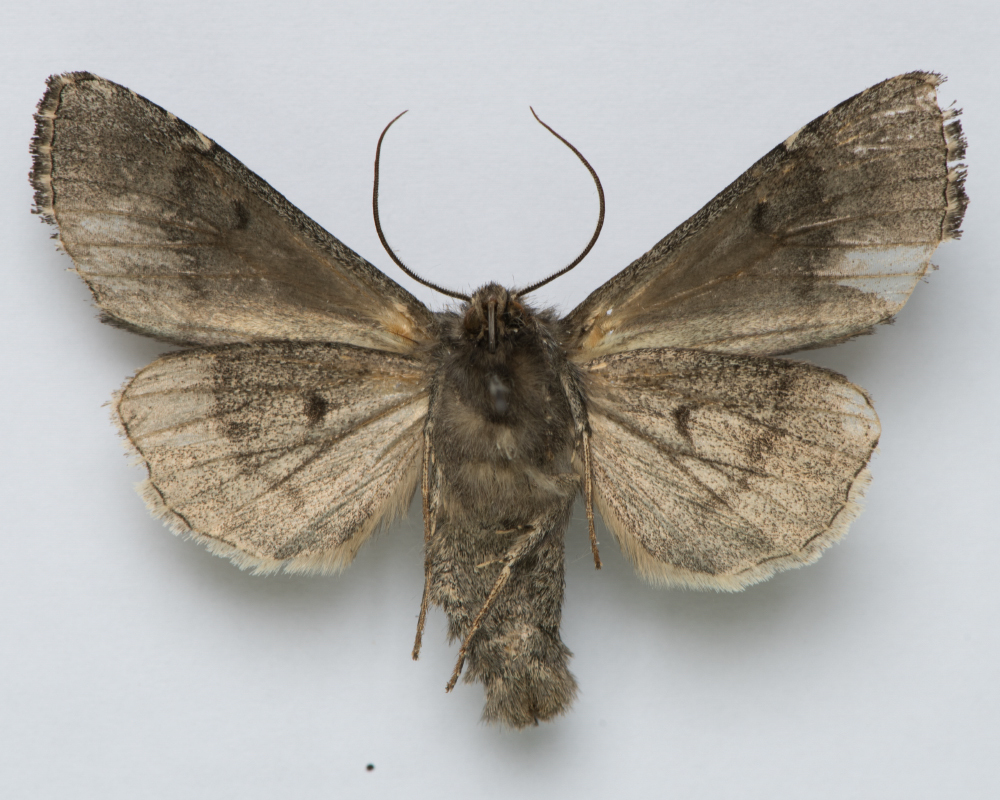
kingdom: Animalia
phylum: Arthropoda
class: Insecta
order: Lepidoptera
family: Noctuidae
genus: Mamestra
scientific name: Mamestra brassicae
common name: Cabbage moth
